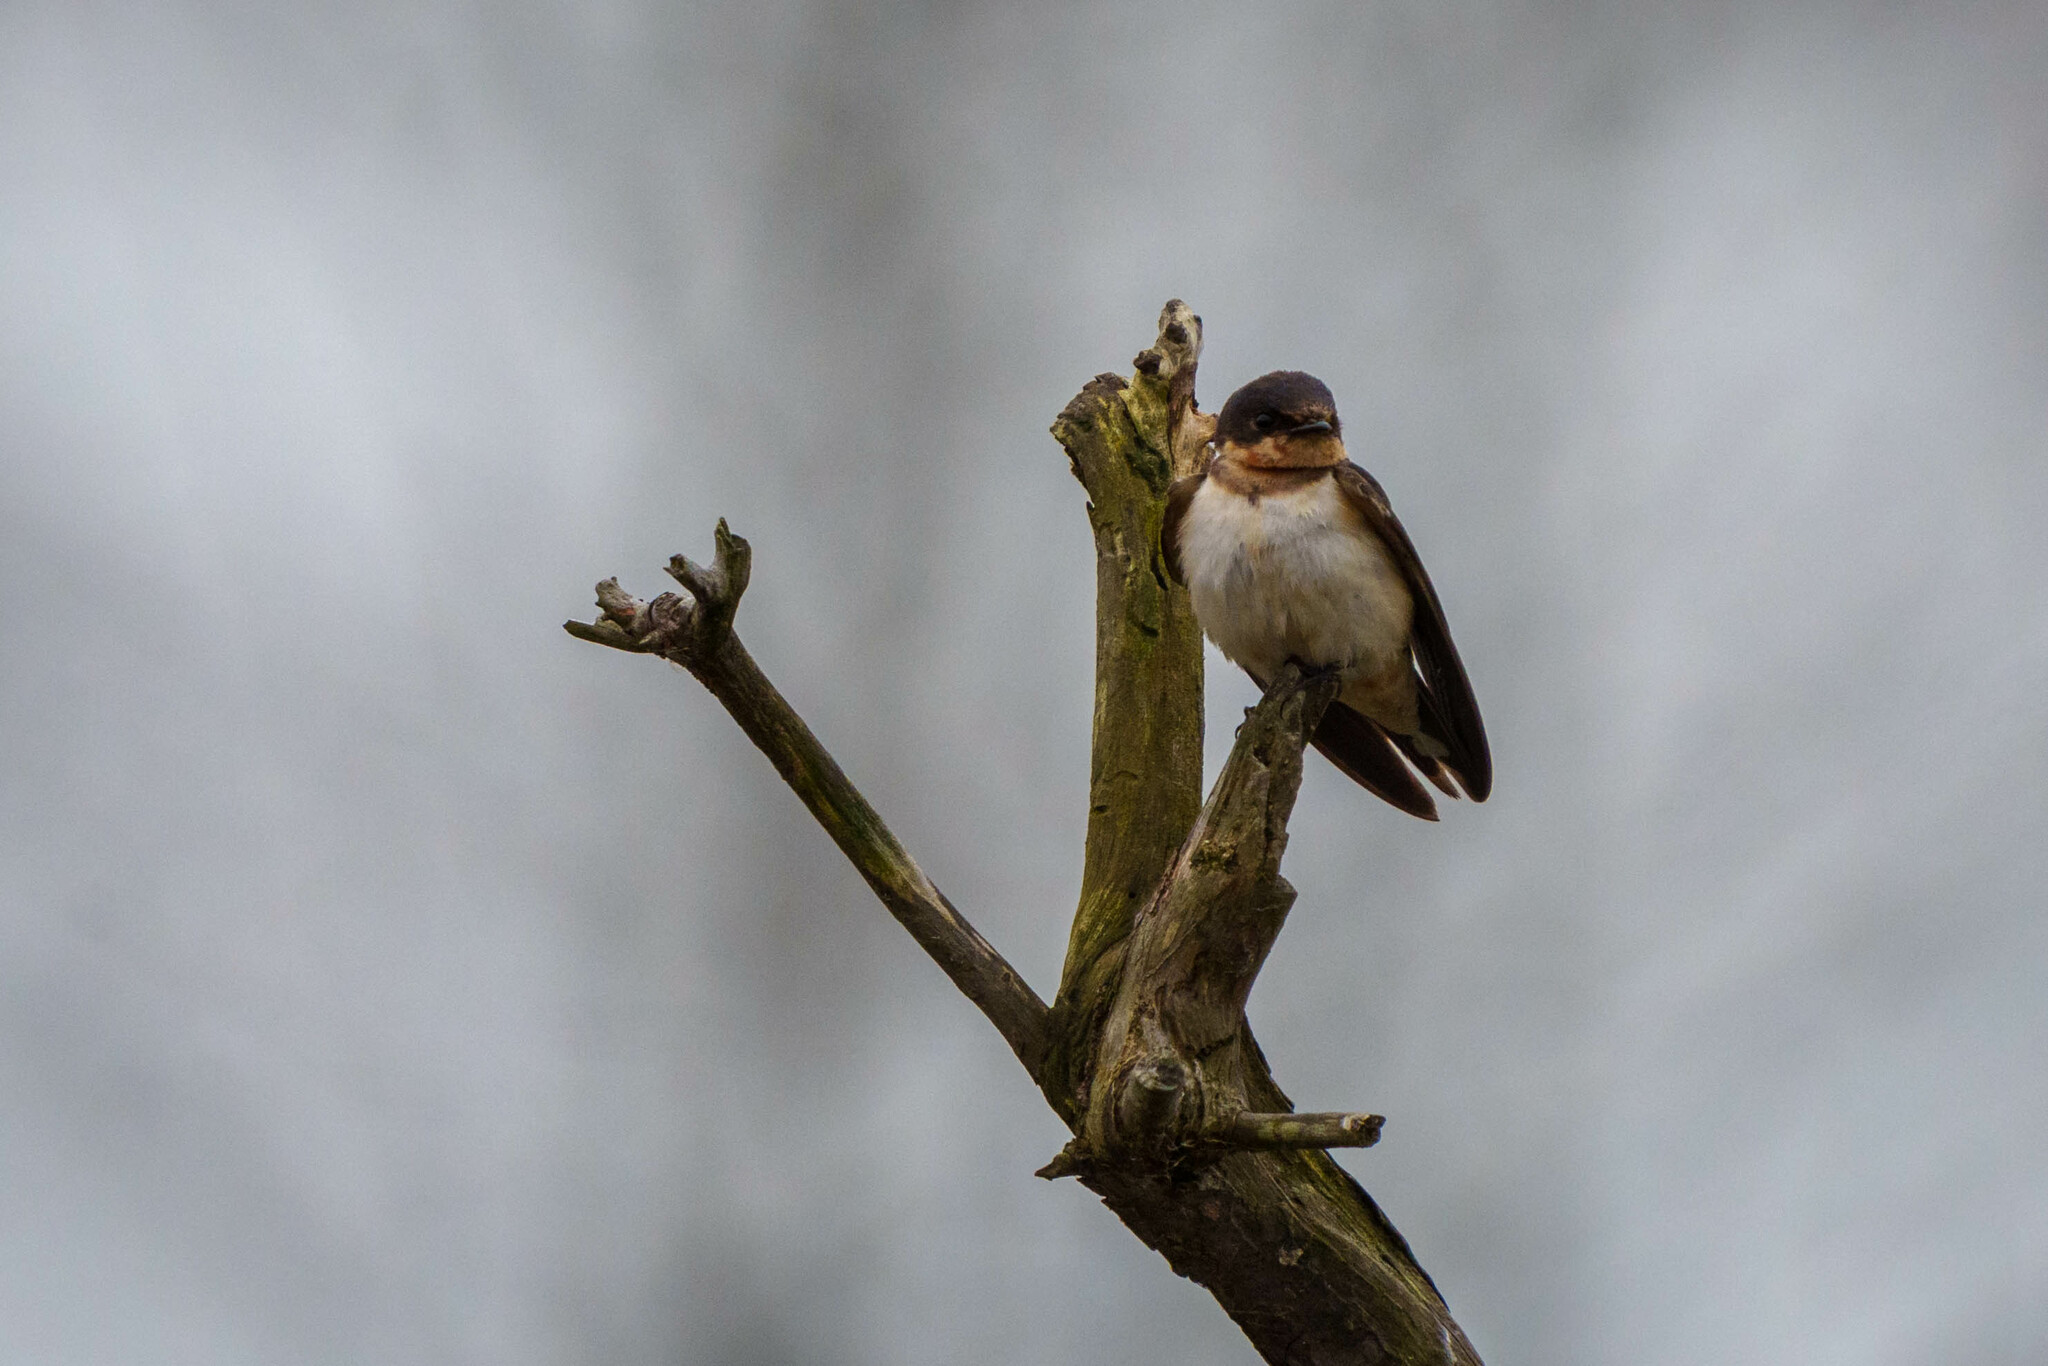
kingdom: Animalia
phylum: Chordata
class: Aves
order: Passeriformes
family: Hirundinidae
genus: Hirundo
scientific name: Hirundo rustica
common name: Barn swallow
